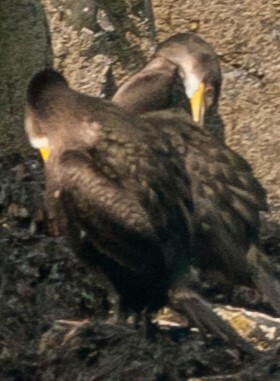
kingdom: Animalia
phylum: Chordata
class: Aves
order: Suliformes
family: Phalacrocoracidae
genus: Phalacrocorax
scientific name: Phalacrocorax aristotelis
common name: European shag
